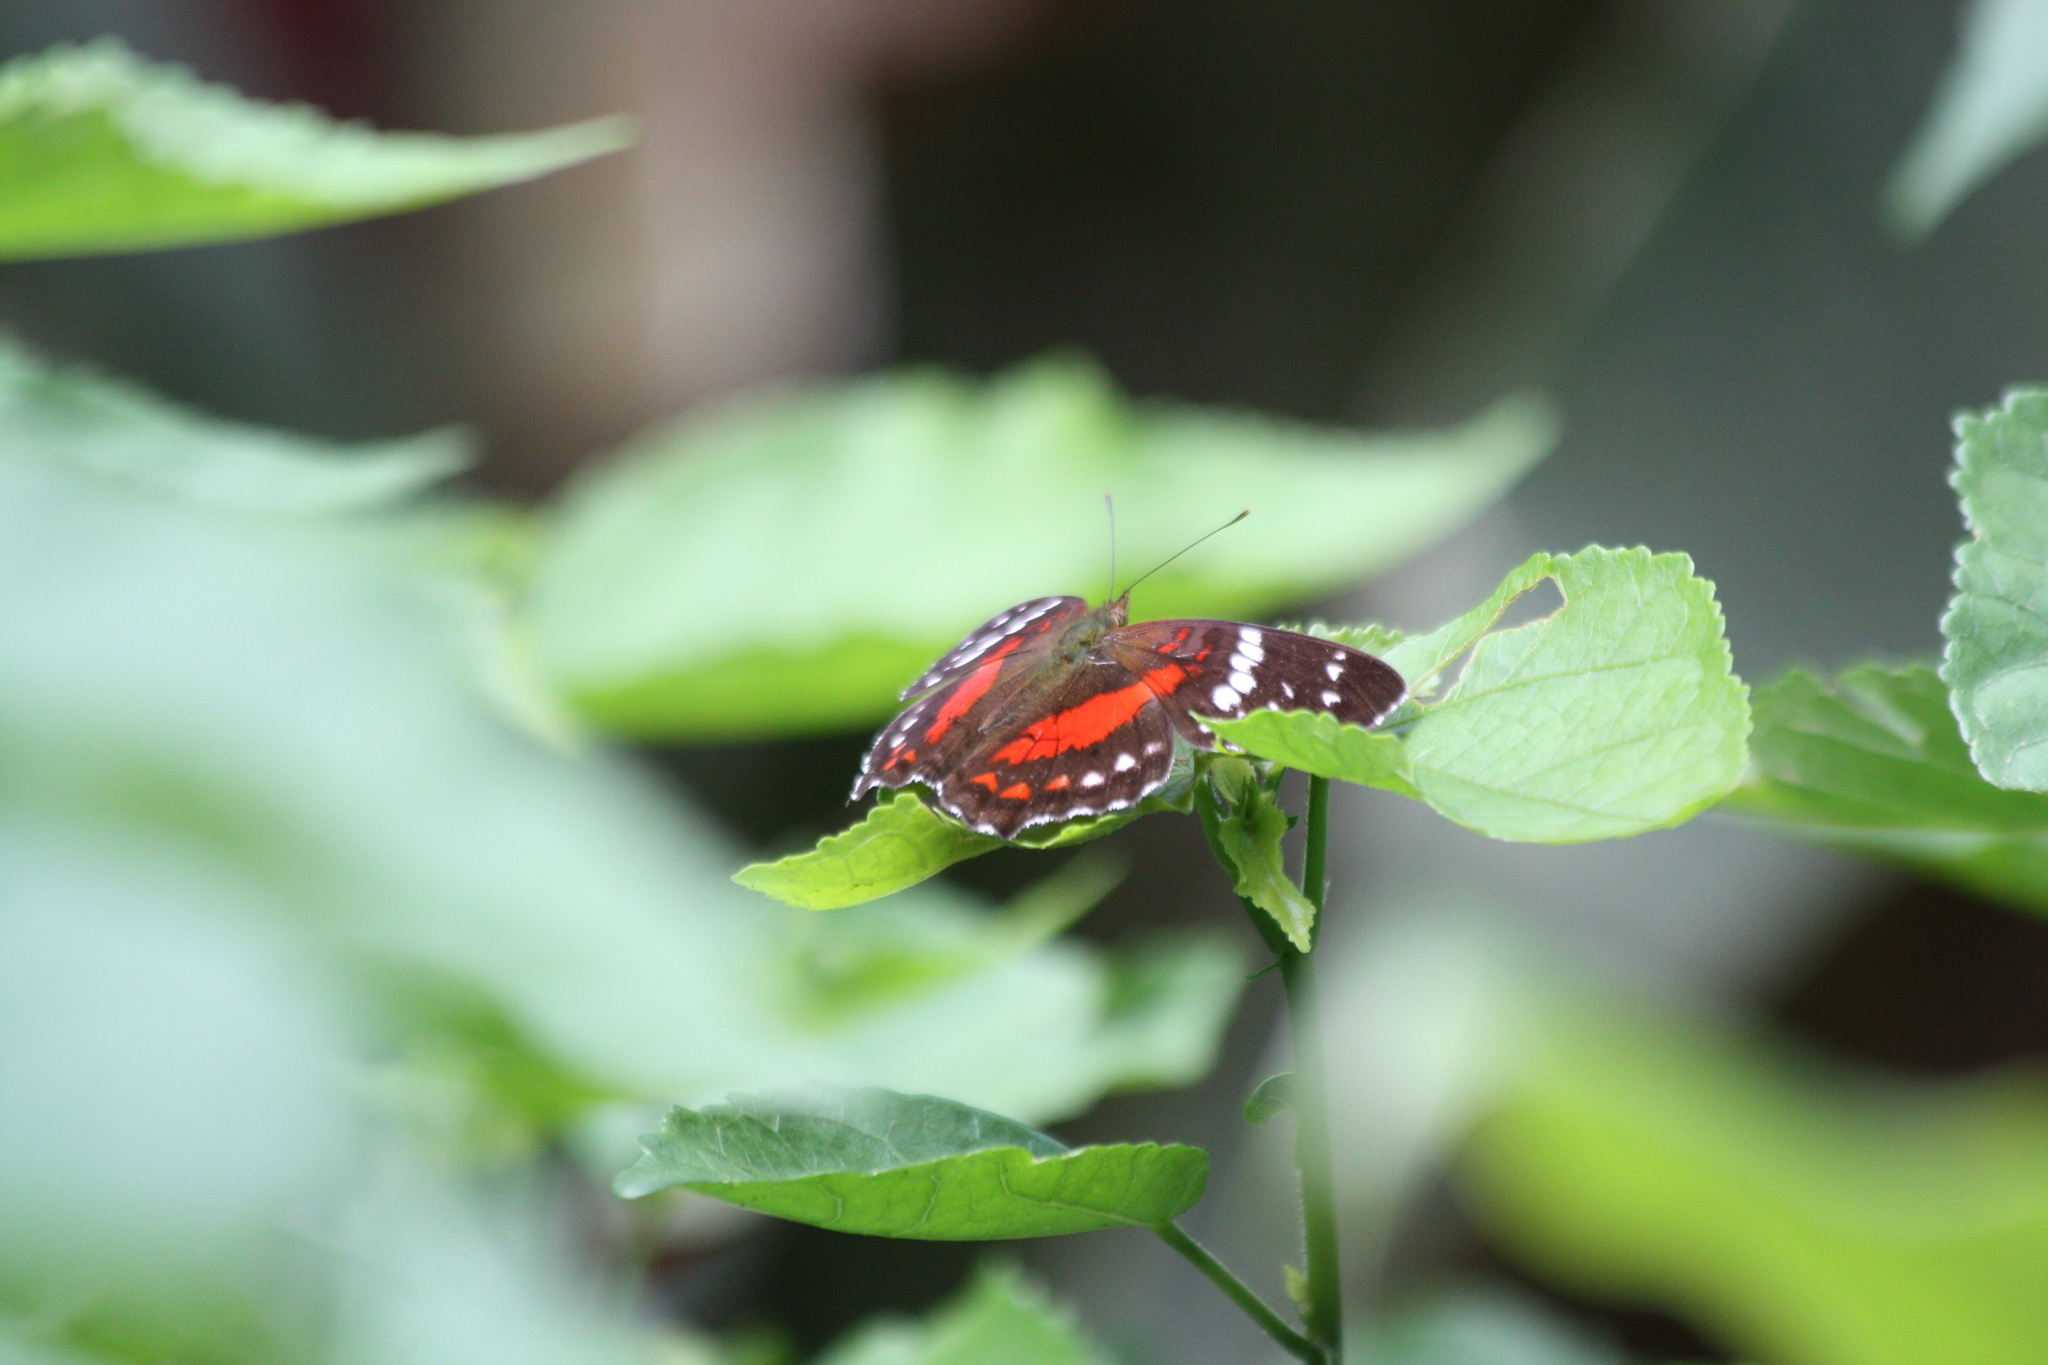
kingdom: Animalia
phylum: Arthropoda
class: Insecta
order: Lepidoptera
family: Nymphalidae
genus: Anartia
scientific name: Anartia amathea
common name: Red peacock
